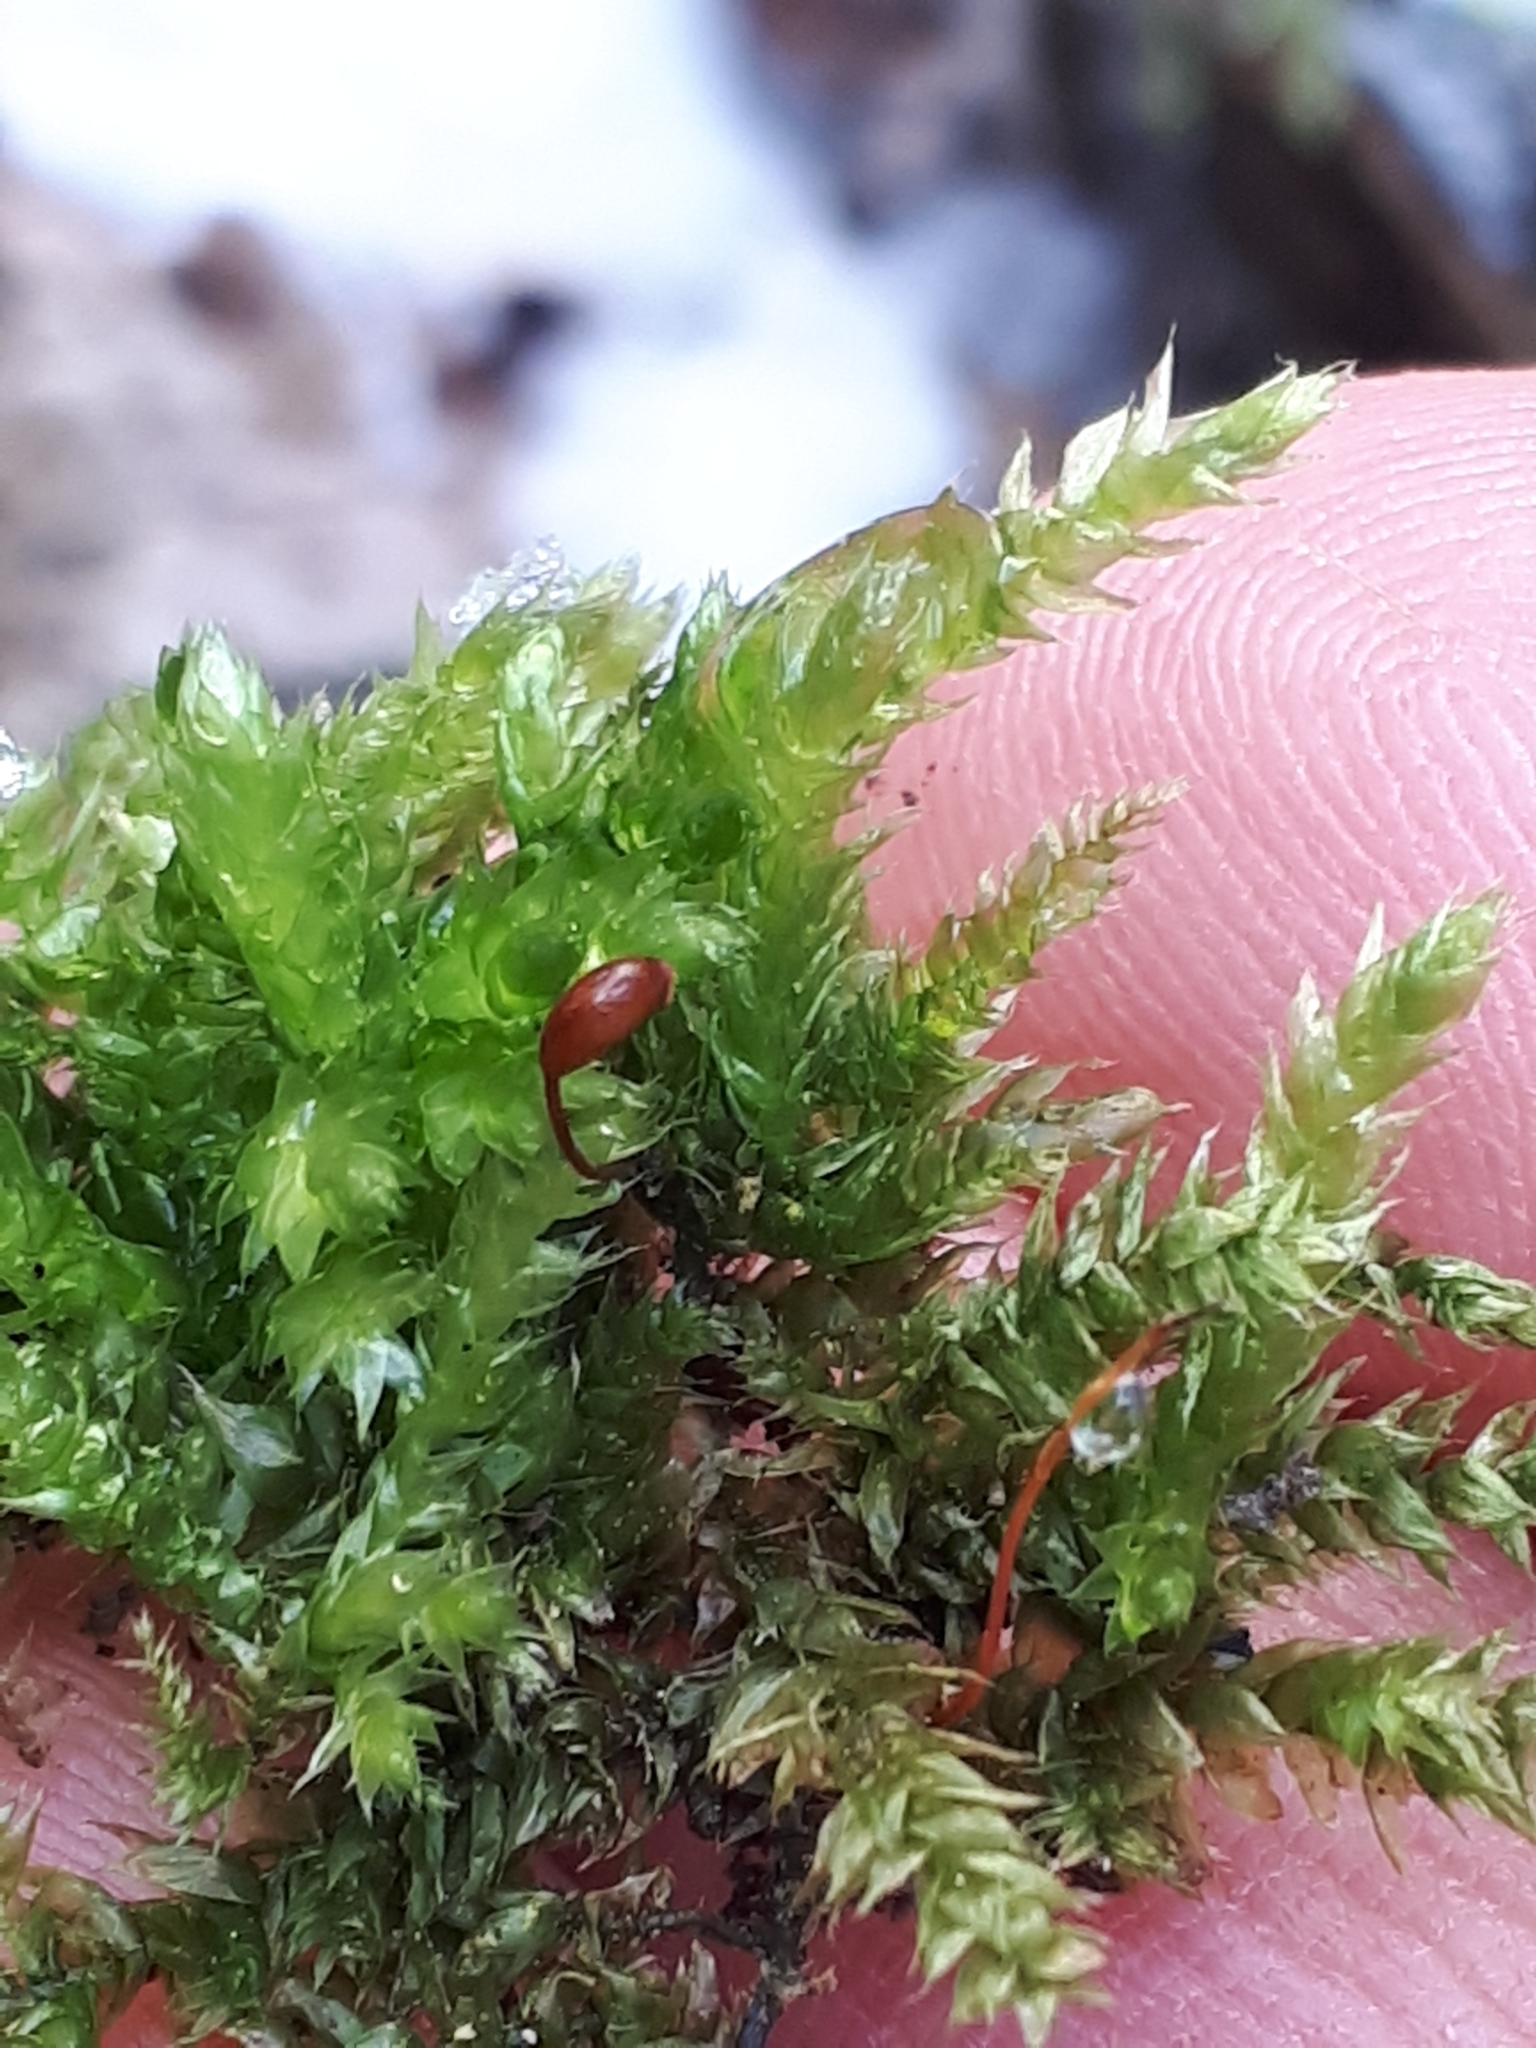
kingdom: Plantae
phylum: Bryophyta
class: Bryopsida
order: Hypnales
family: Lembophyllaceae
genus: Isothecium
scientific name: Isothecium alopecuroides
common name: Larger mouse-tail moss
